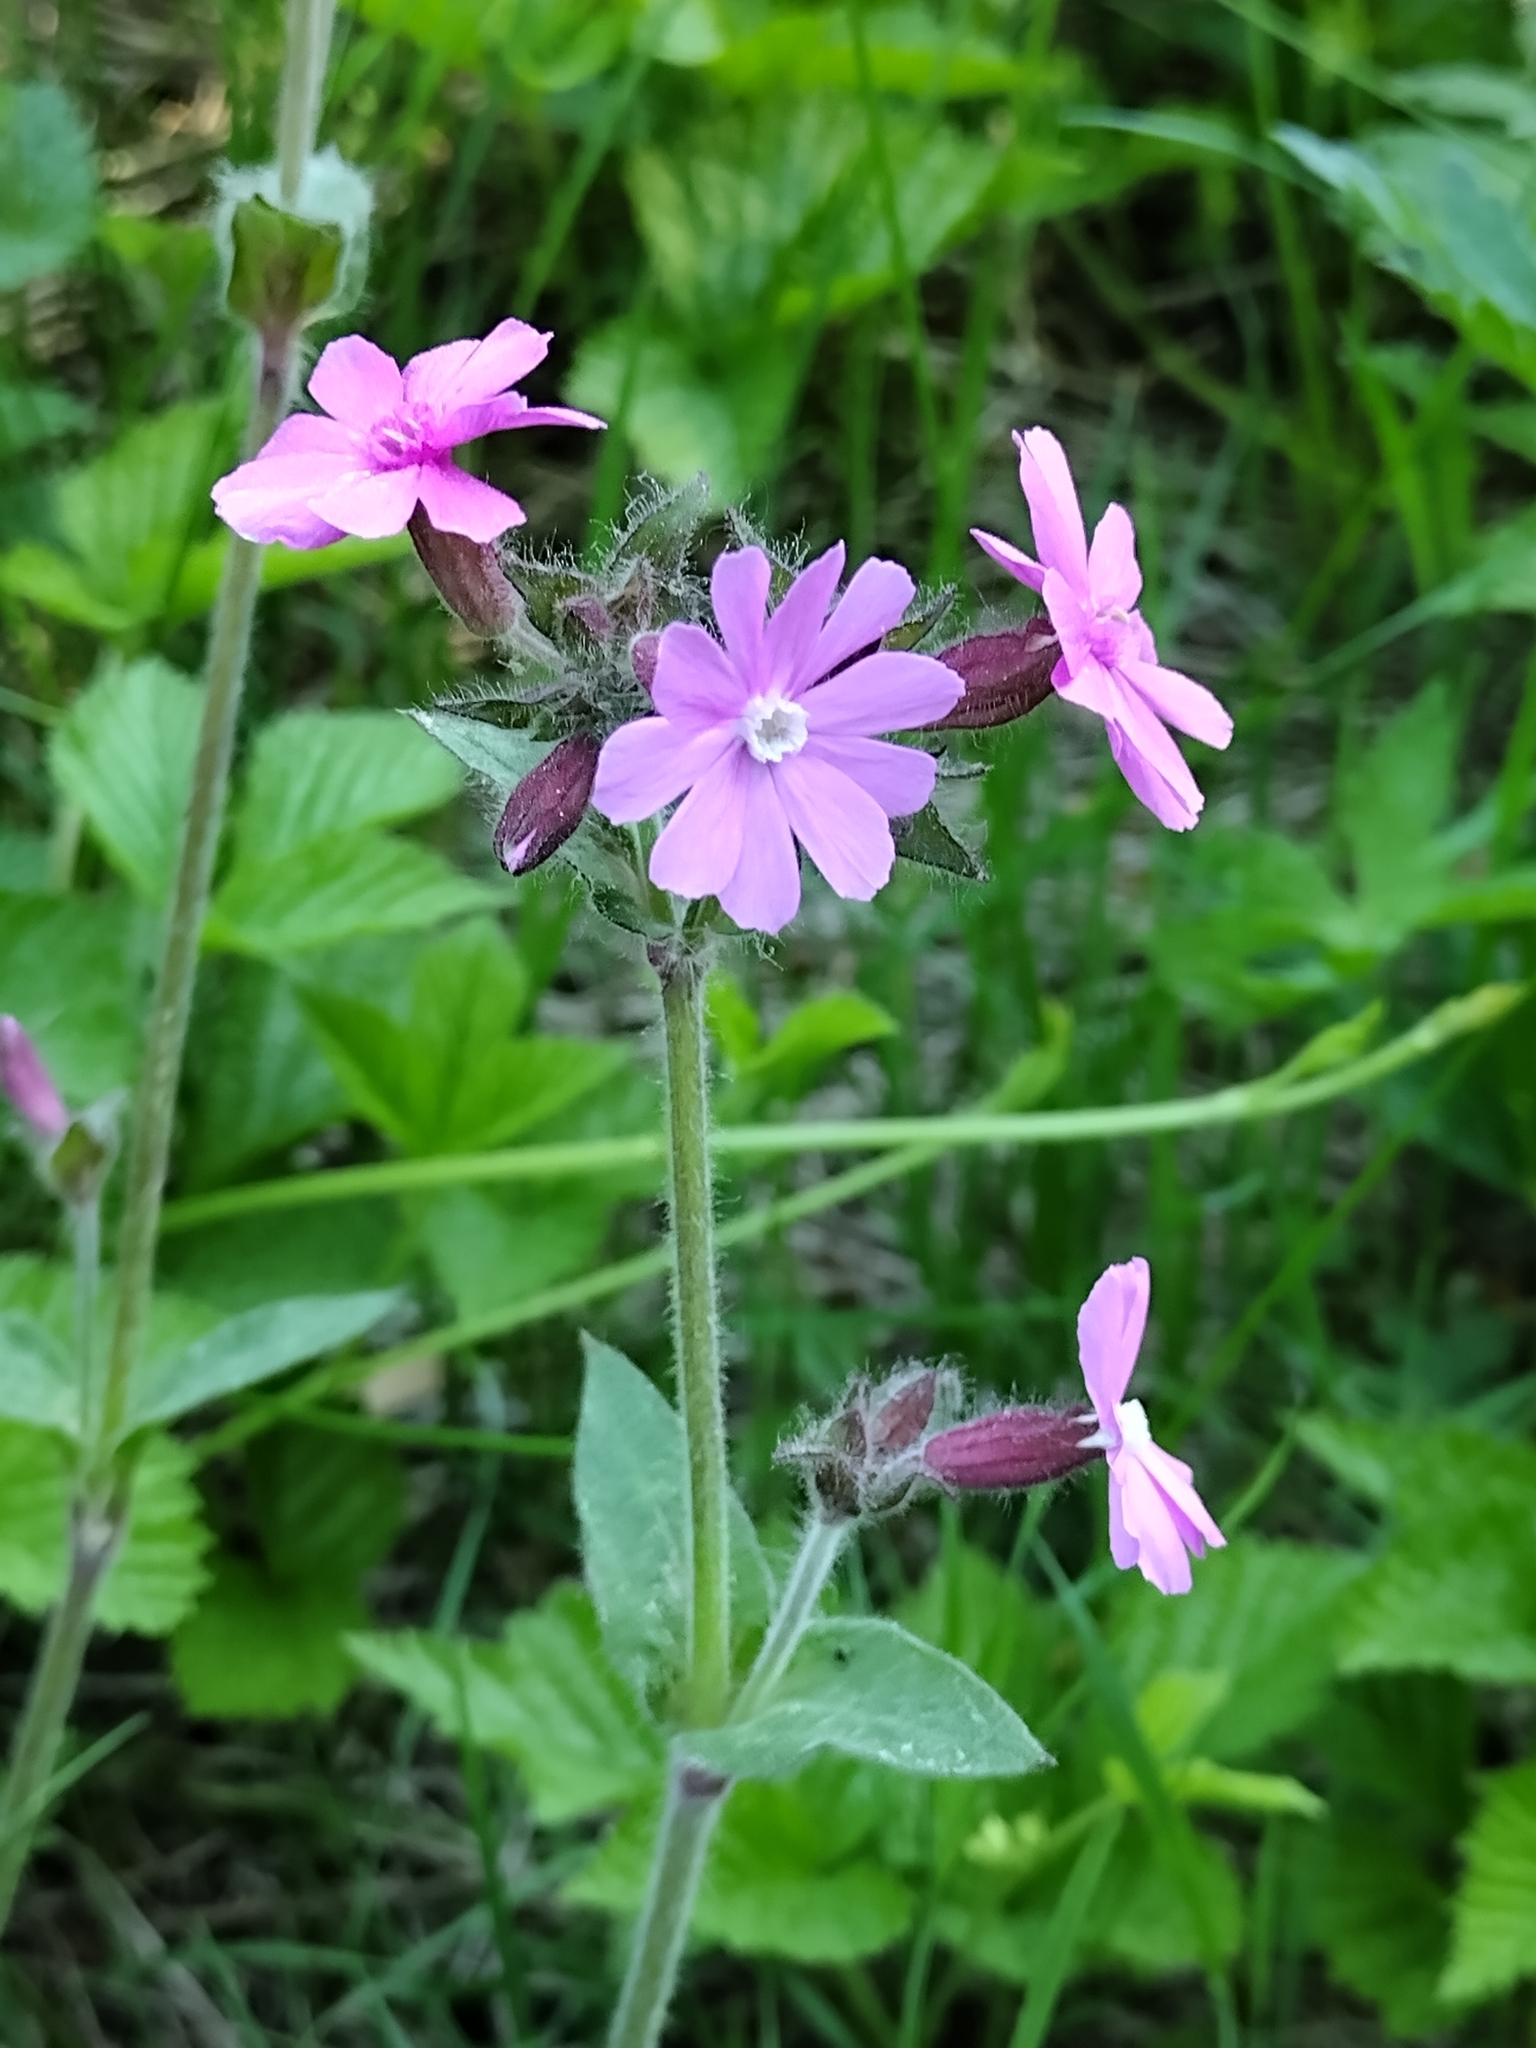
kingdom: Plantae
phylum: Tracheophyta
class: Magnoliopsida
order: Caryophyllales
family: Caryophyllaceae
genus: Silene
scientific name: Silene dioica
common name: Red campion
